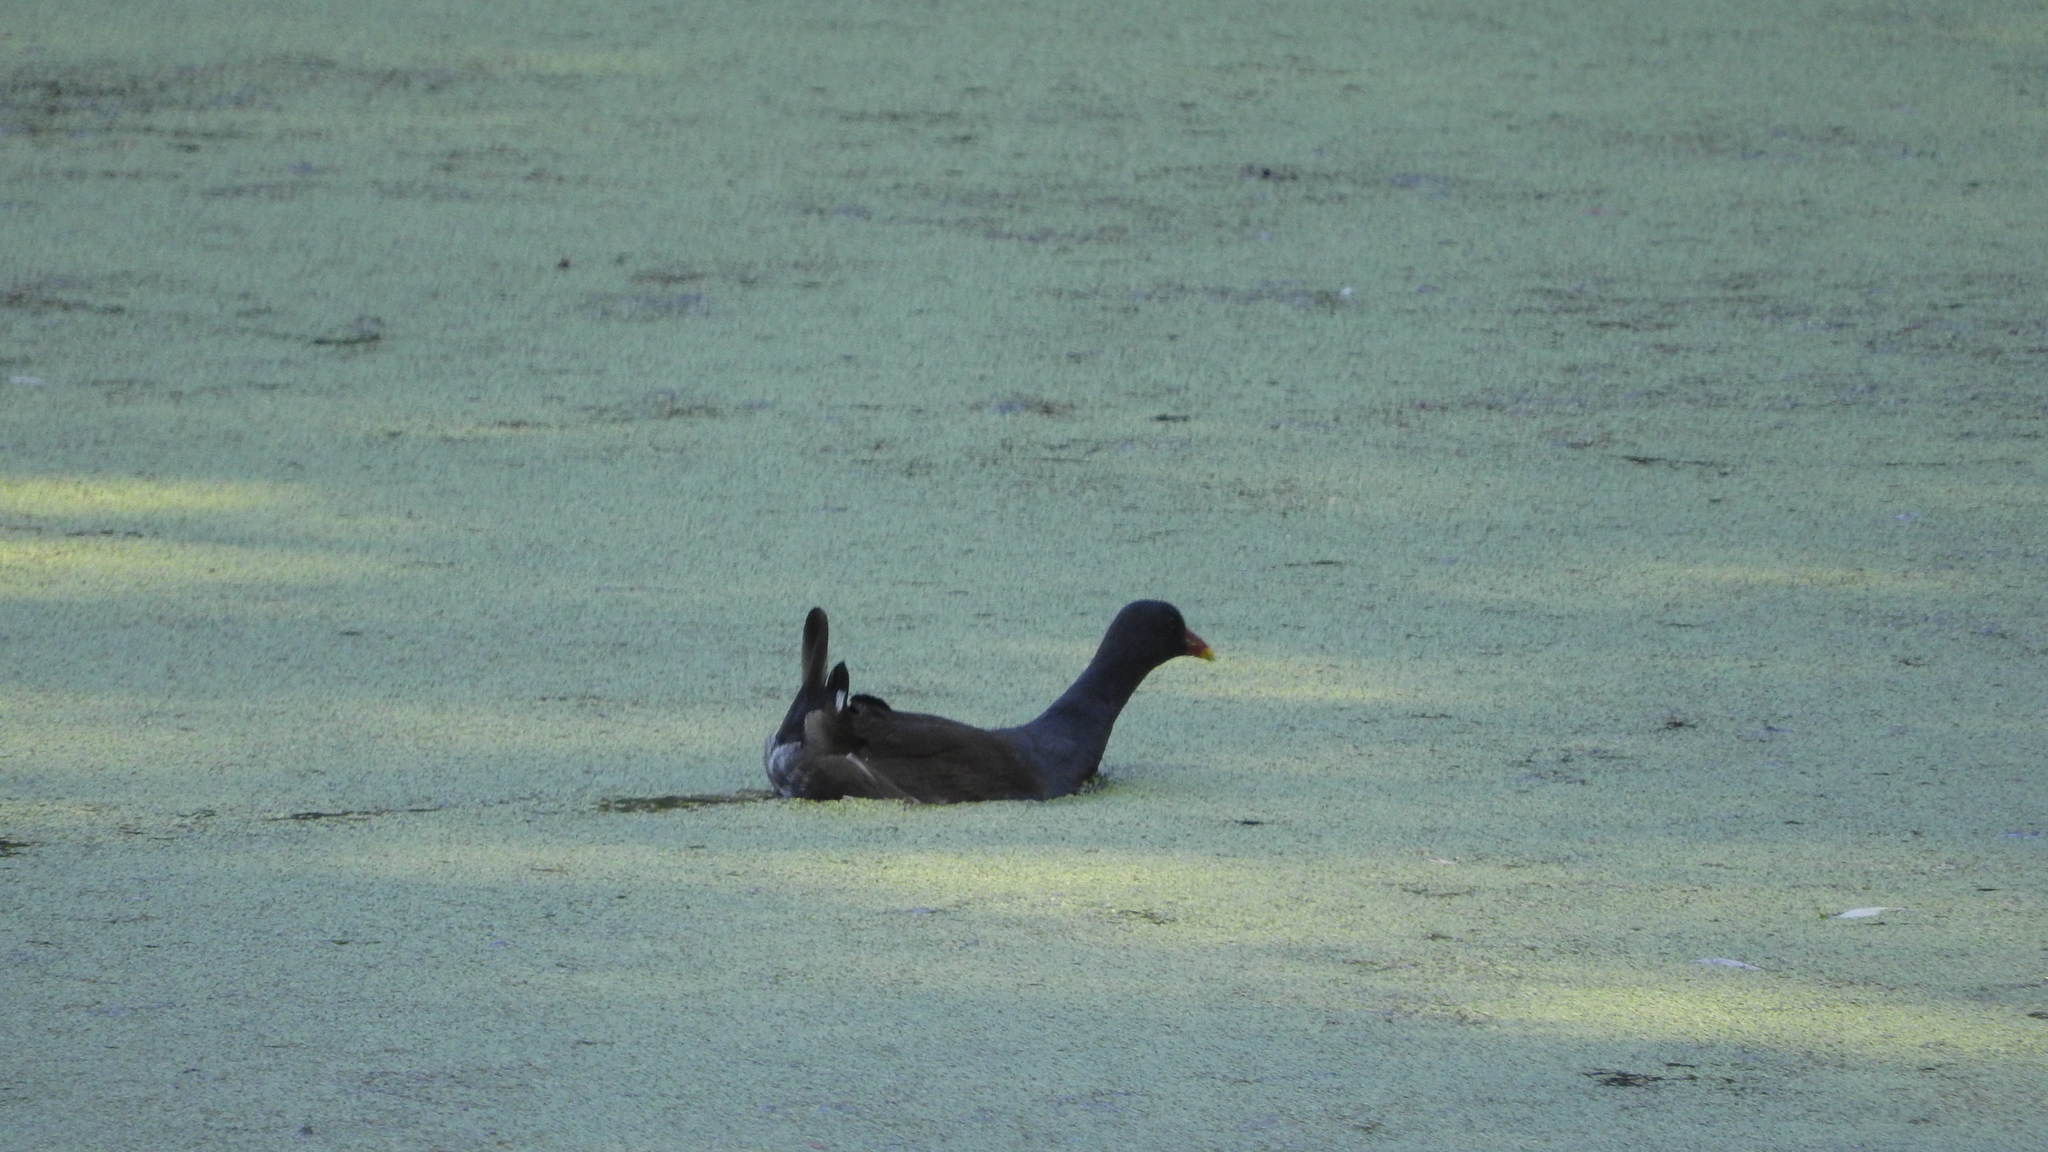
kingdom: Animalia
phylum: Chordata
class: Aves
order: Gruiformes
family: Rallidae
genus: Gallinula
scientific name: Gallinula chloropus
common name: Common moorhen
